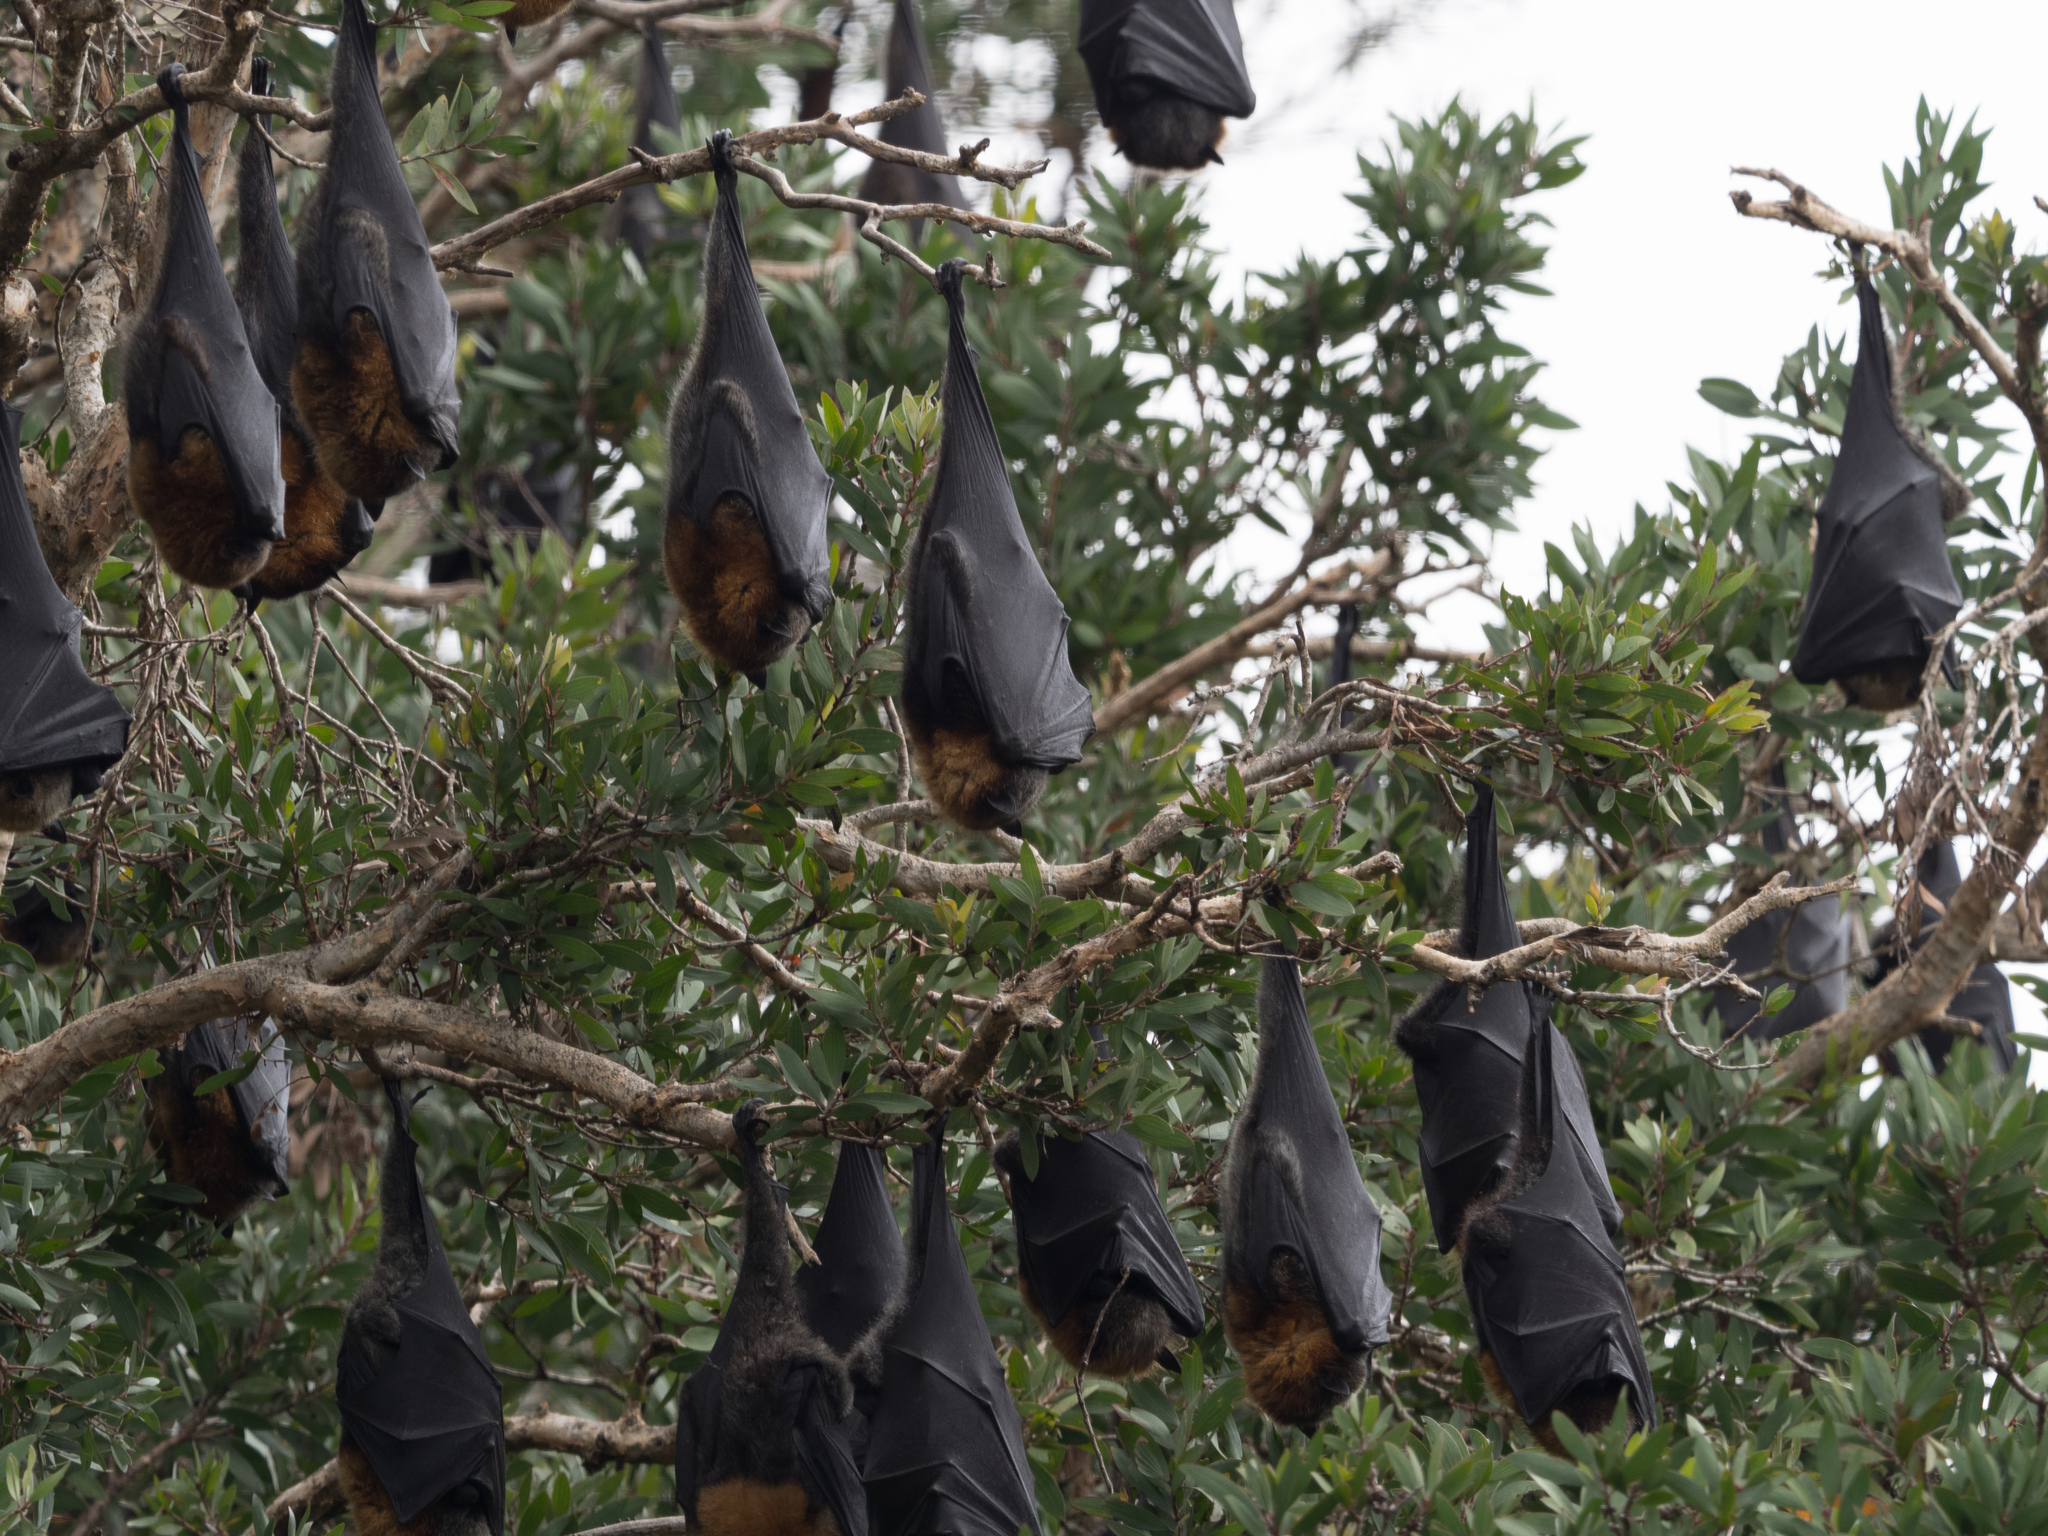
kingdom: Animalia
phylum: Chordata
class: Mammalia
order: Chiroptera
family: Pteropodidae
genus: Pteropus
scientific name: Pteropus poliocephalus
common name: Gray-headed flying fox
